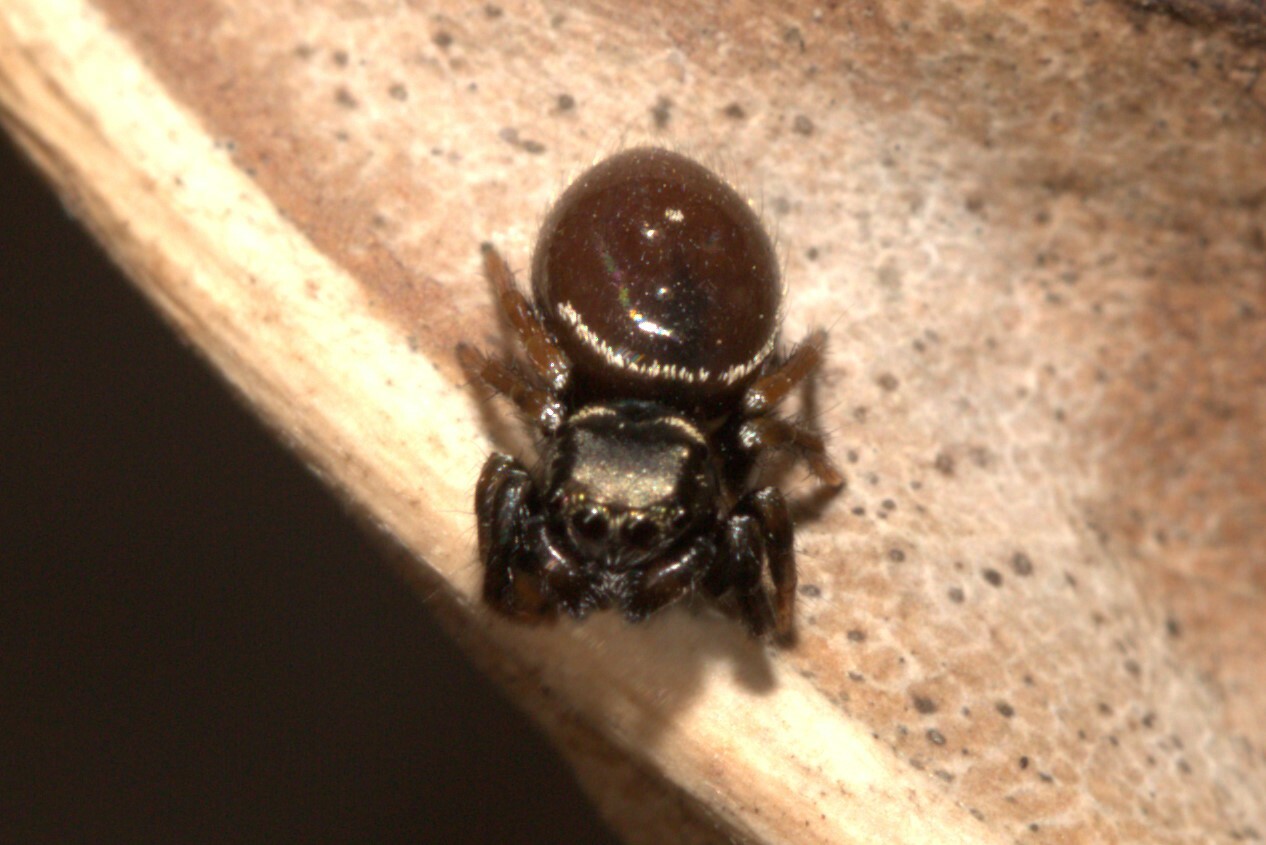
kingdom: Animalia
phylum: Arthropoda
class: Arachnida
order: Araneae
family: Salticidae
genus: Zenodorus
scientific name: Zenodorus orbiculatus
